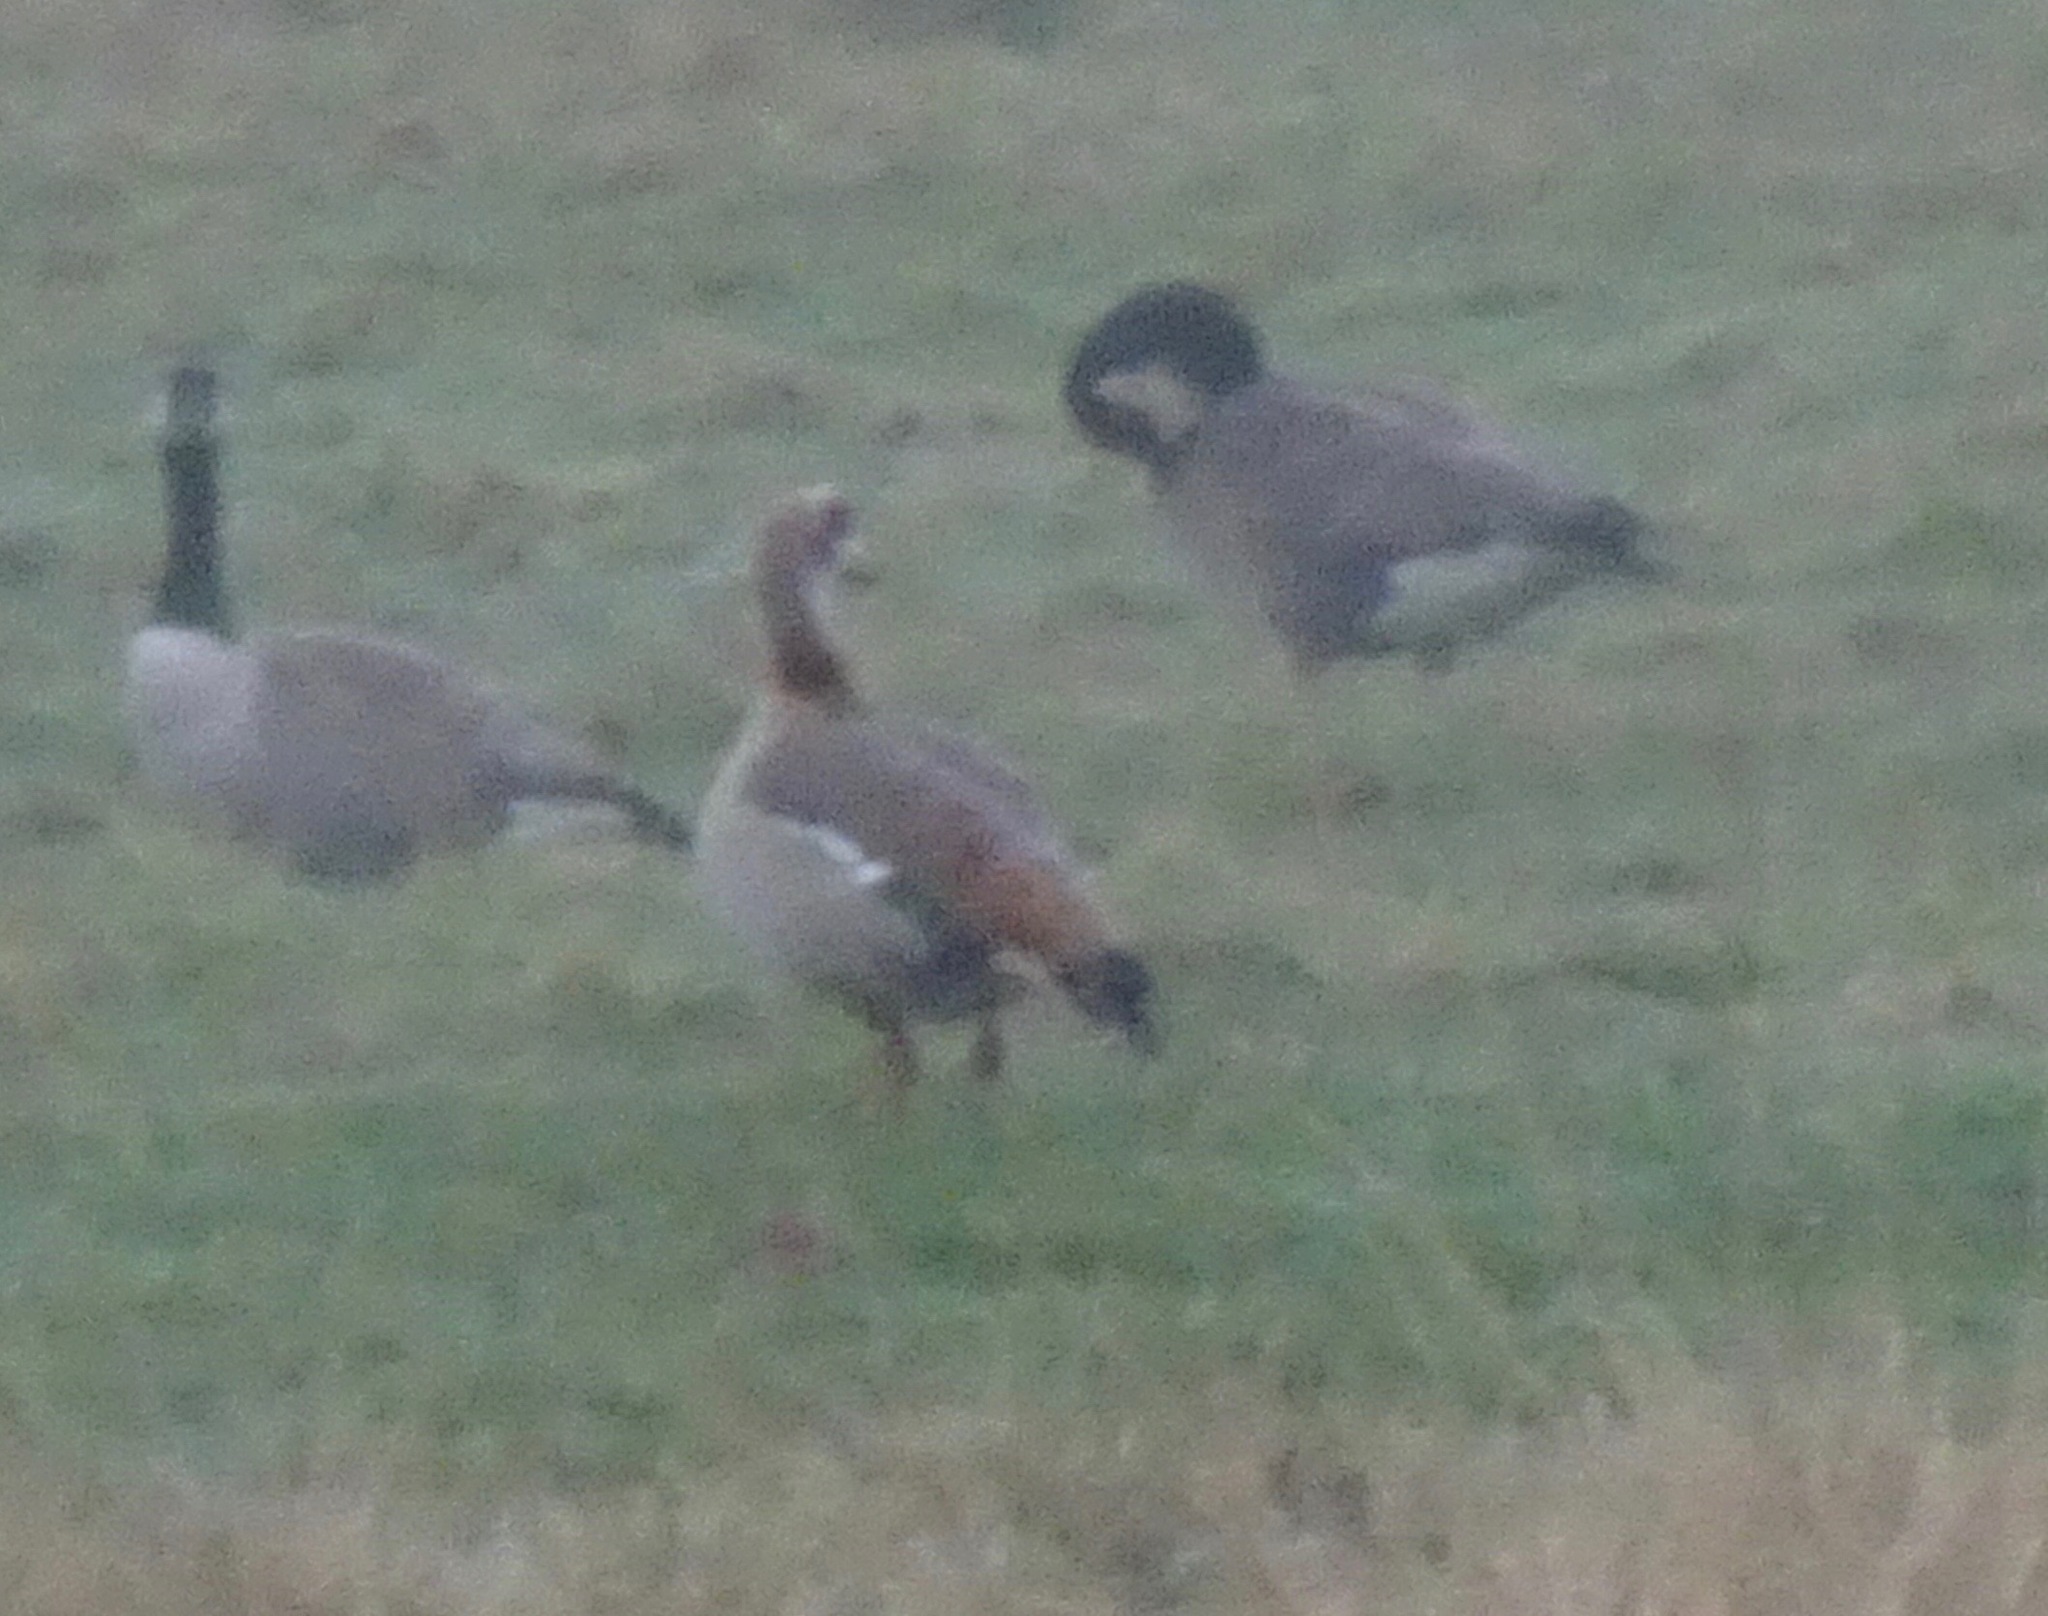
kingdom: Animalia
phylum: Chordata
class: Aves
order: Anseriformes
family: Anatidae
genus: Alopochen
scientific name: Alopochen aegyptiaca
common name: Egyptian goose
